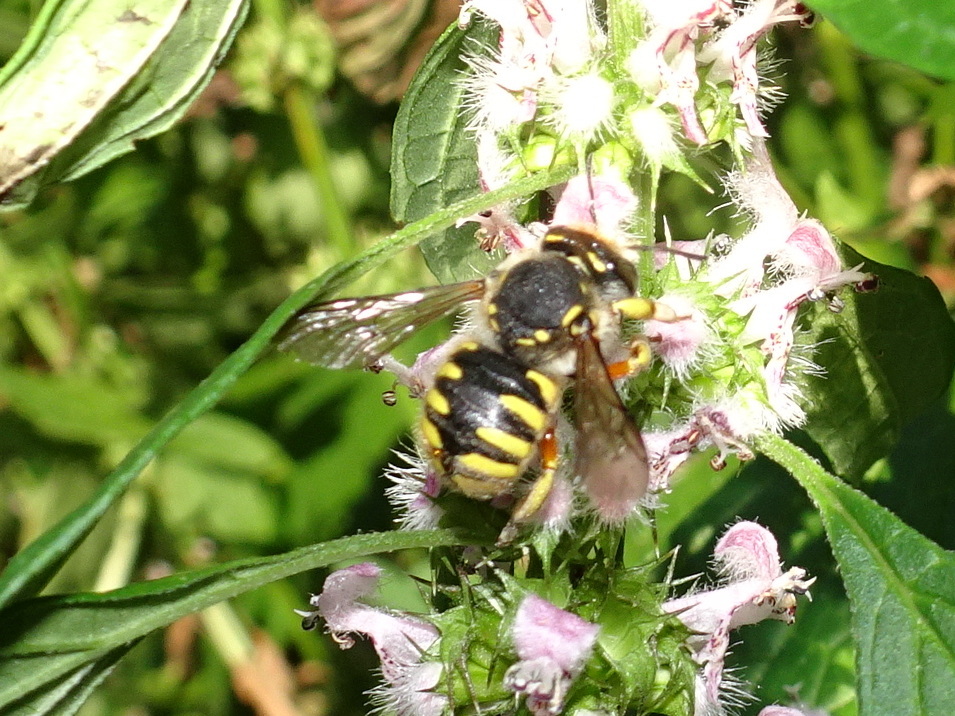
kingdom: Animalia
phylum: Arthropoda
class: Insecta
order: Hymenoptera
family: Megachilidae
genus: Anthidium
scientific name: Anthidium manicatum
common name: Wool carder bee
